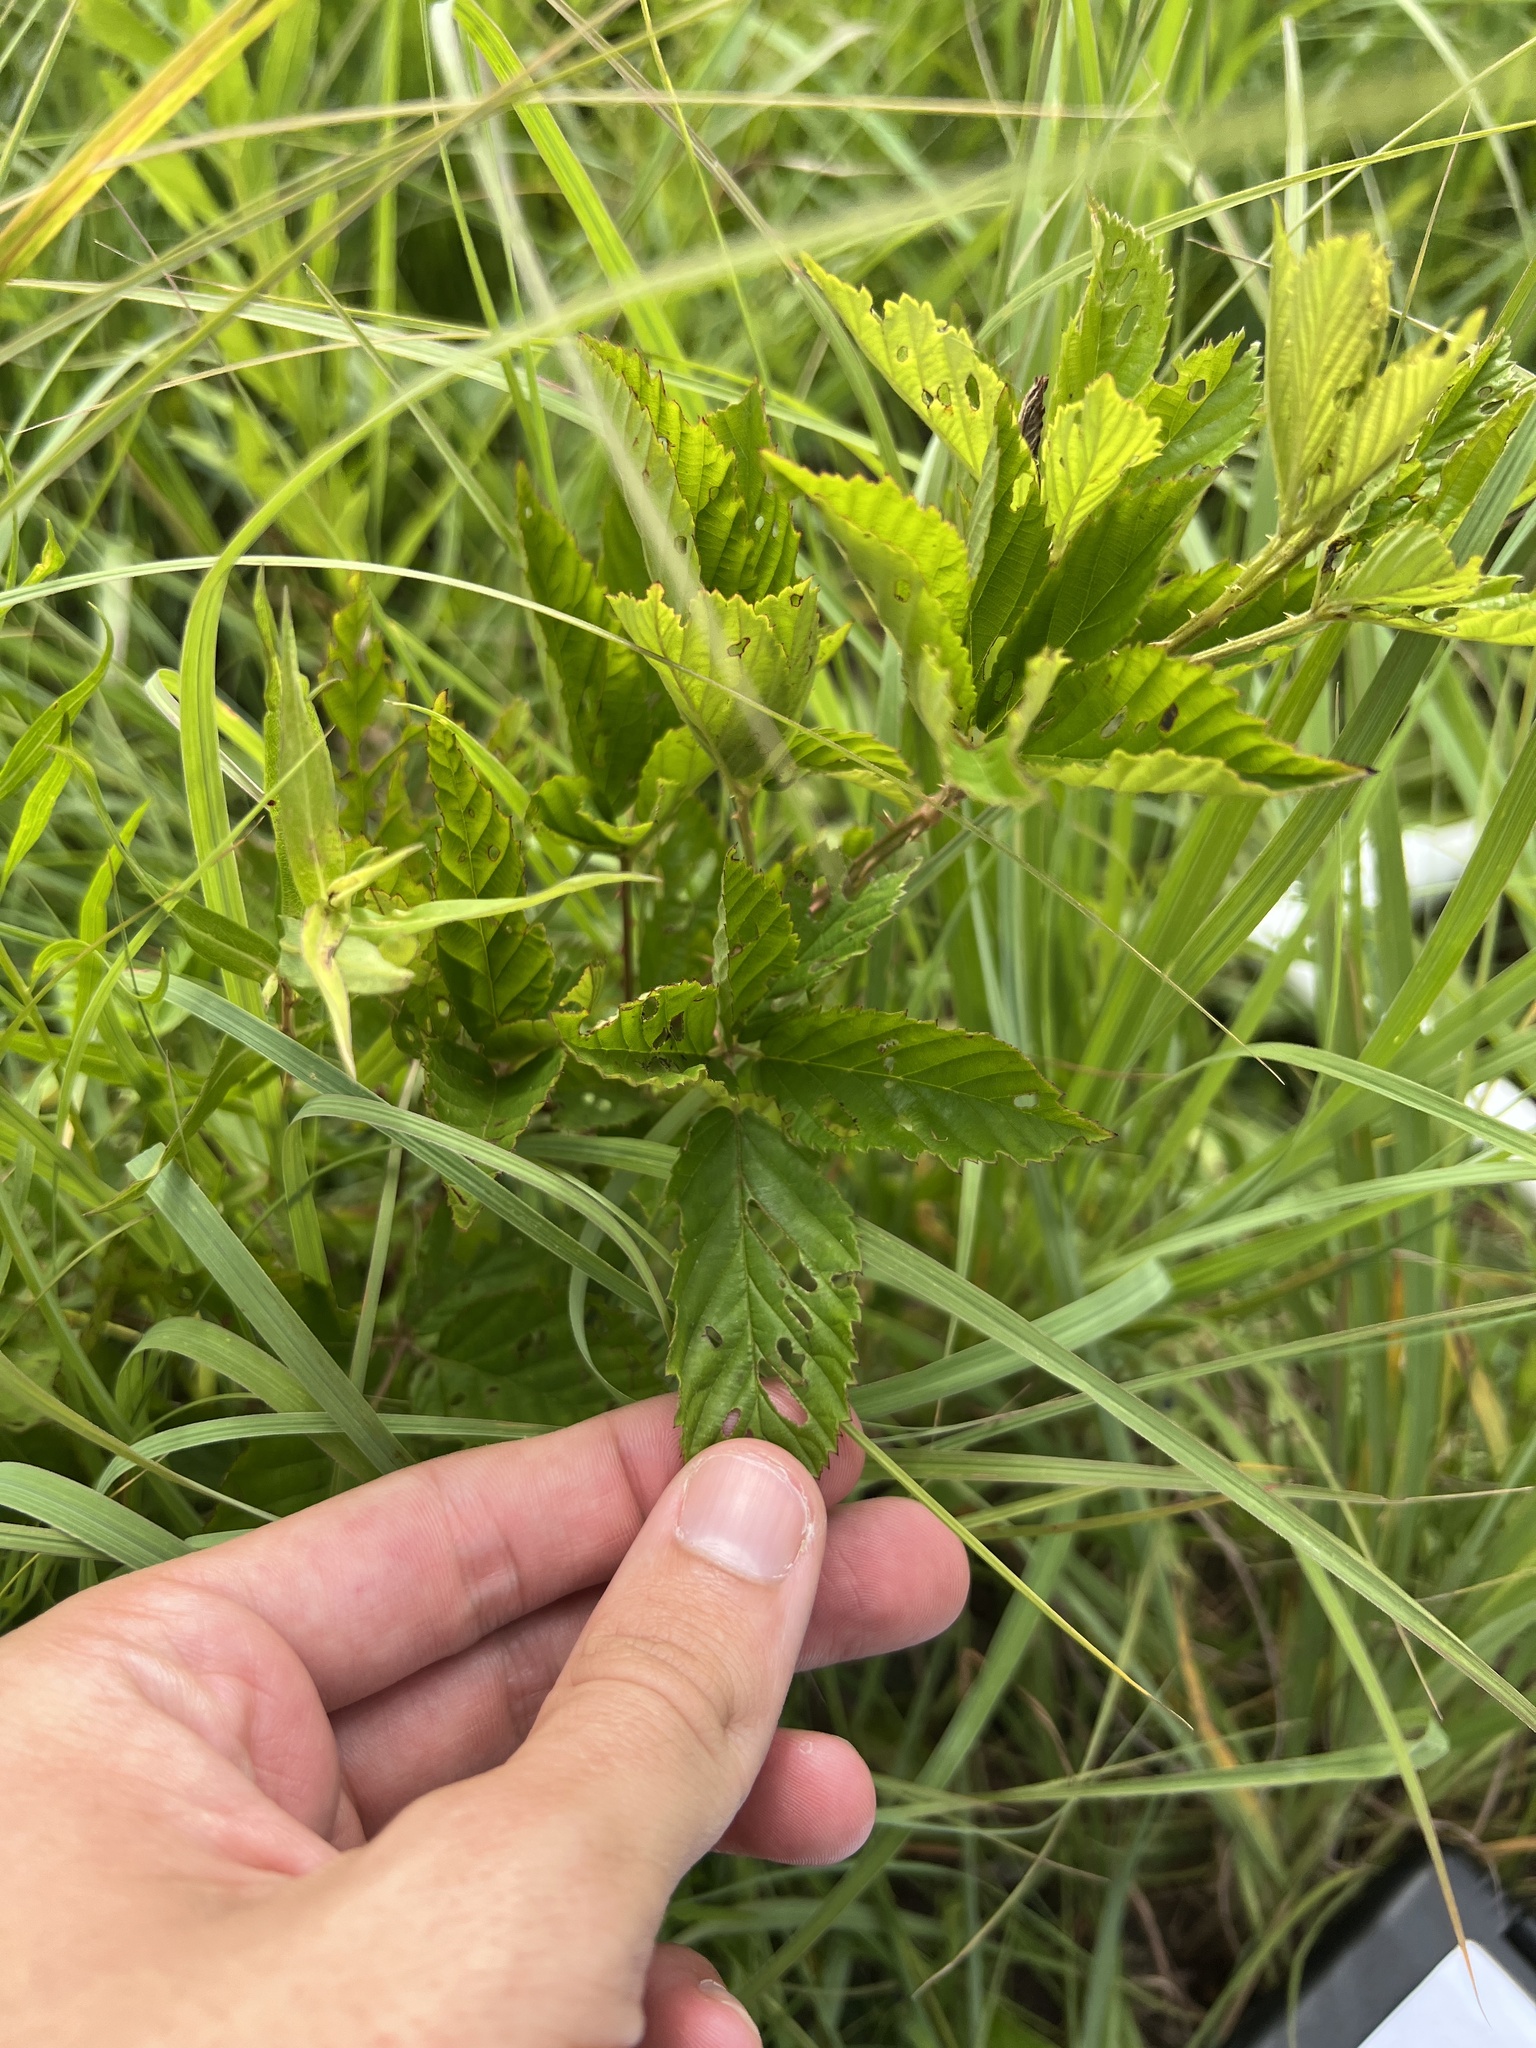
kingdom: Plantae
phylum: Tracheophyta
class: Magnoliopsida
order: Rosales
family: Rosaceae
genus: Rubus
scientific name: Rubus laudatus
